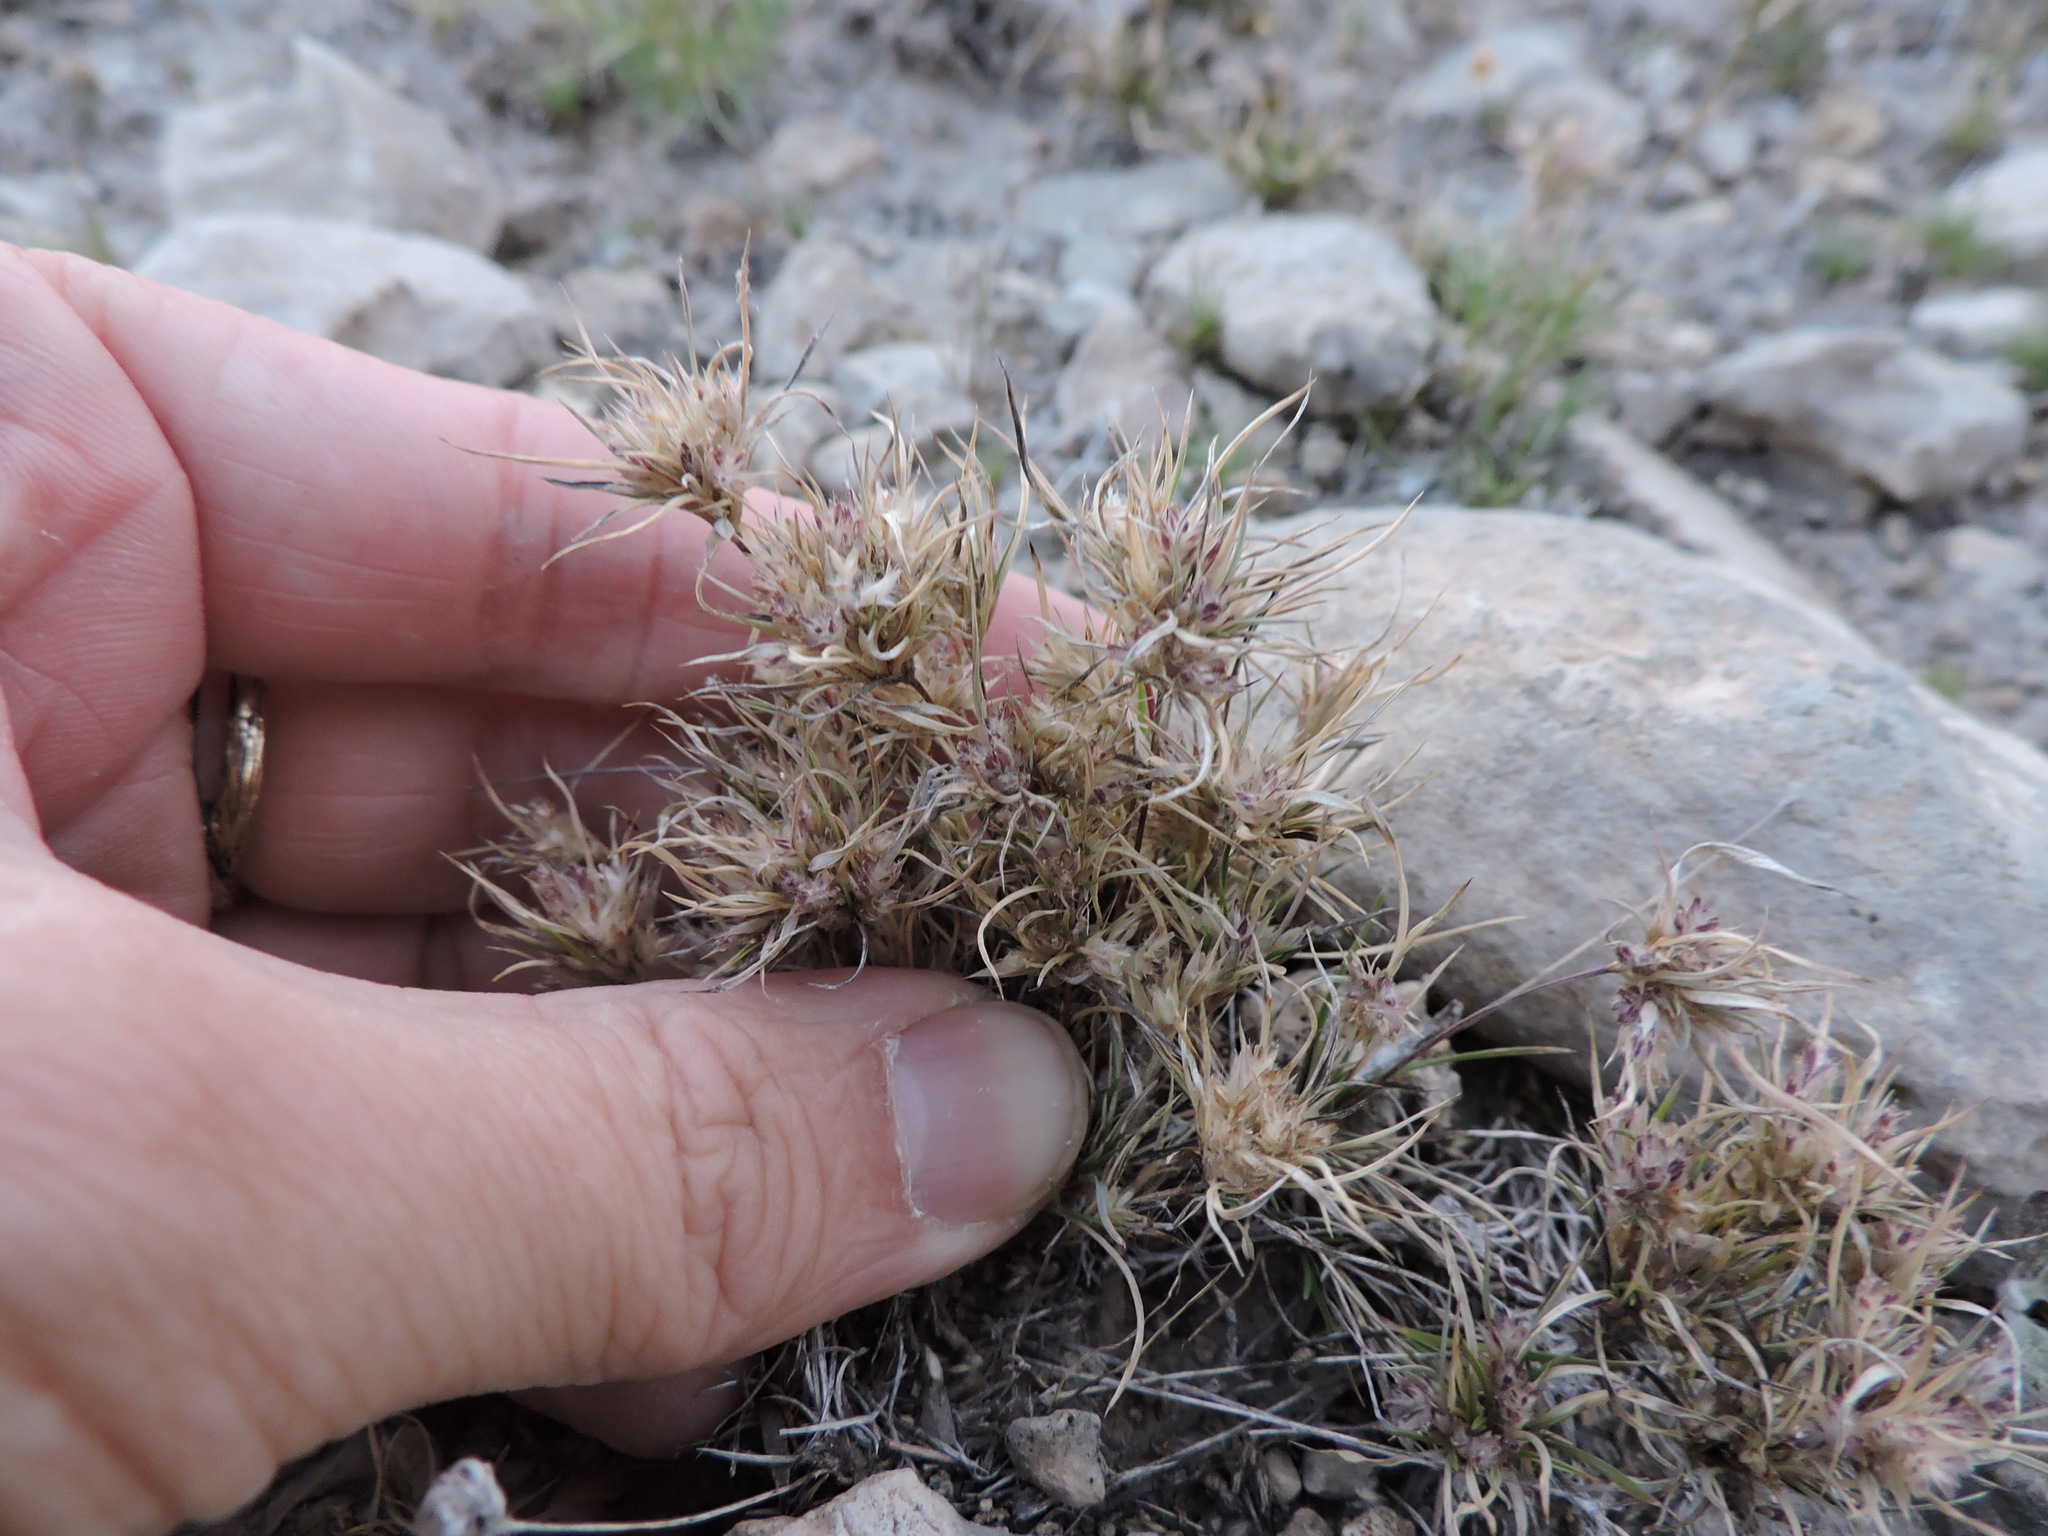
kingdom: Plantae
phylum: Tracheophyta
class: Liliopsida
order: Poales
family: Poaceae
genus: Dasyochloa
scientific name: Dasyochloa pulchella
